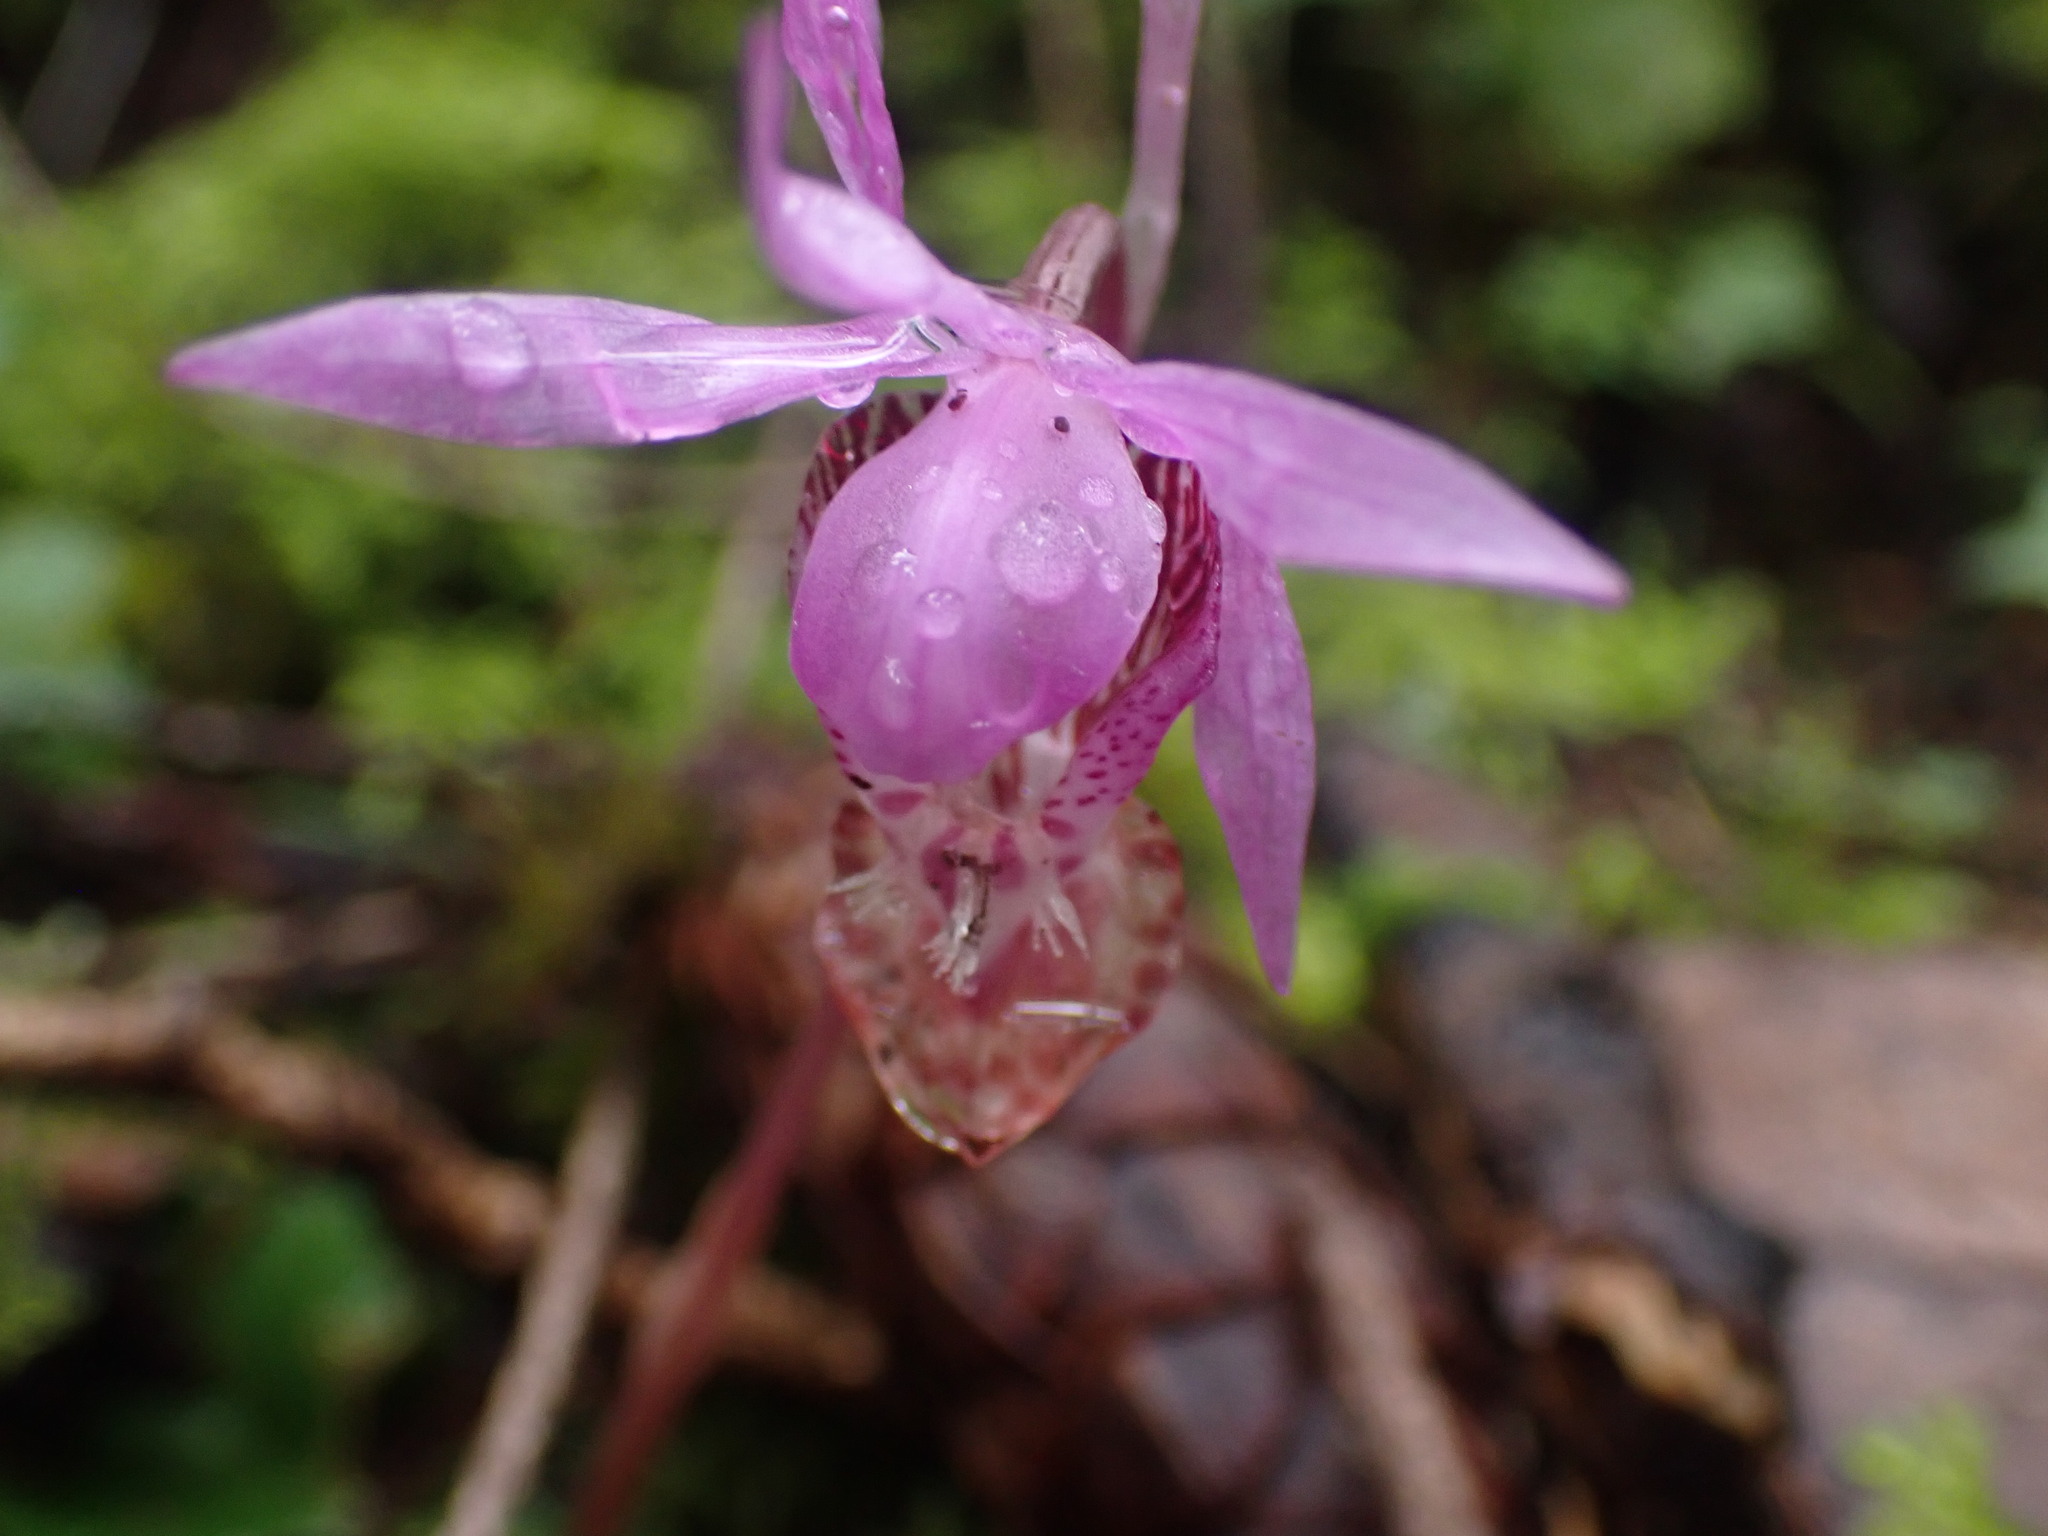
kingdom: Plantae
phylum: Tracheophyta
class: Liliopsida
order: Asparagales
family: Orchidaceae
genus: Calypso
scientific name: Calypso bulbosa
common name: Calypso
